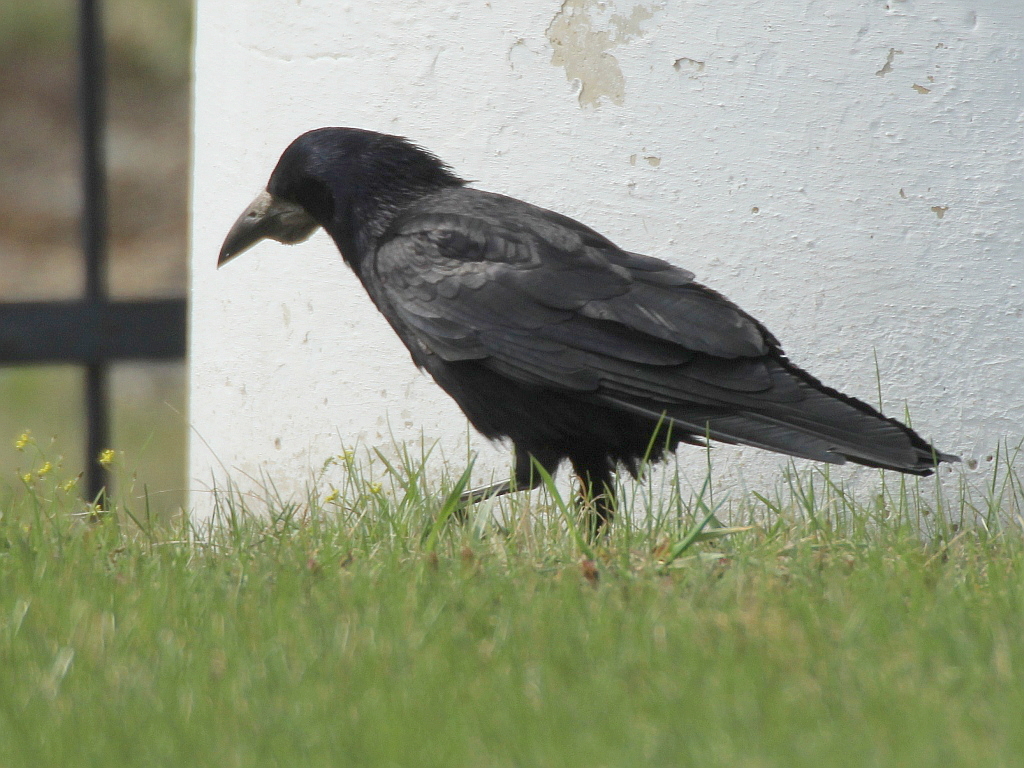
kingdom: Animalia
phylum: Chordata
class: Aves
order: Passeriformes
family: Corvidae
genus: Corvus
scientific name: Corvus frugilegus
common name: Rook
